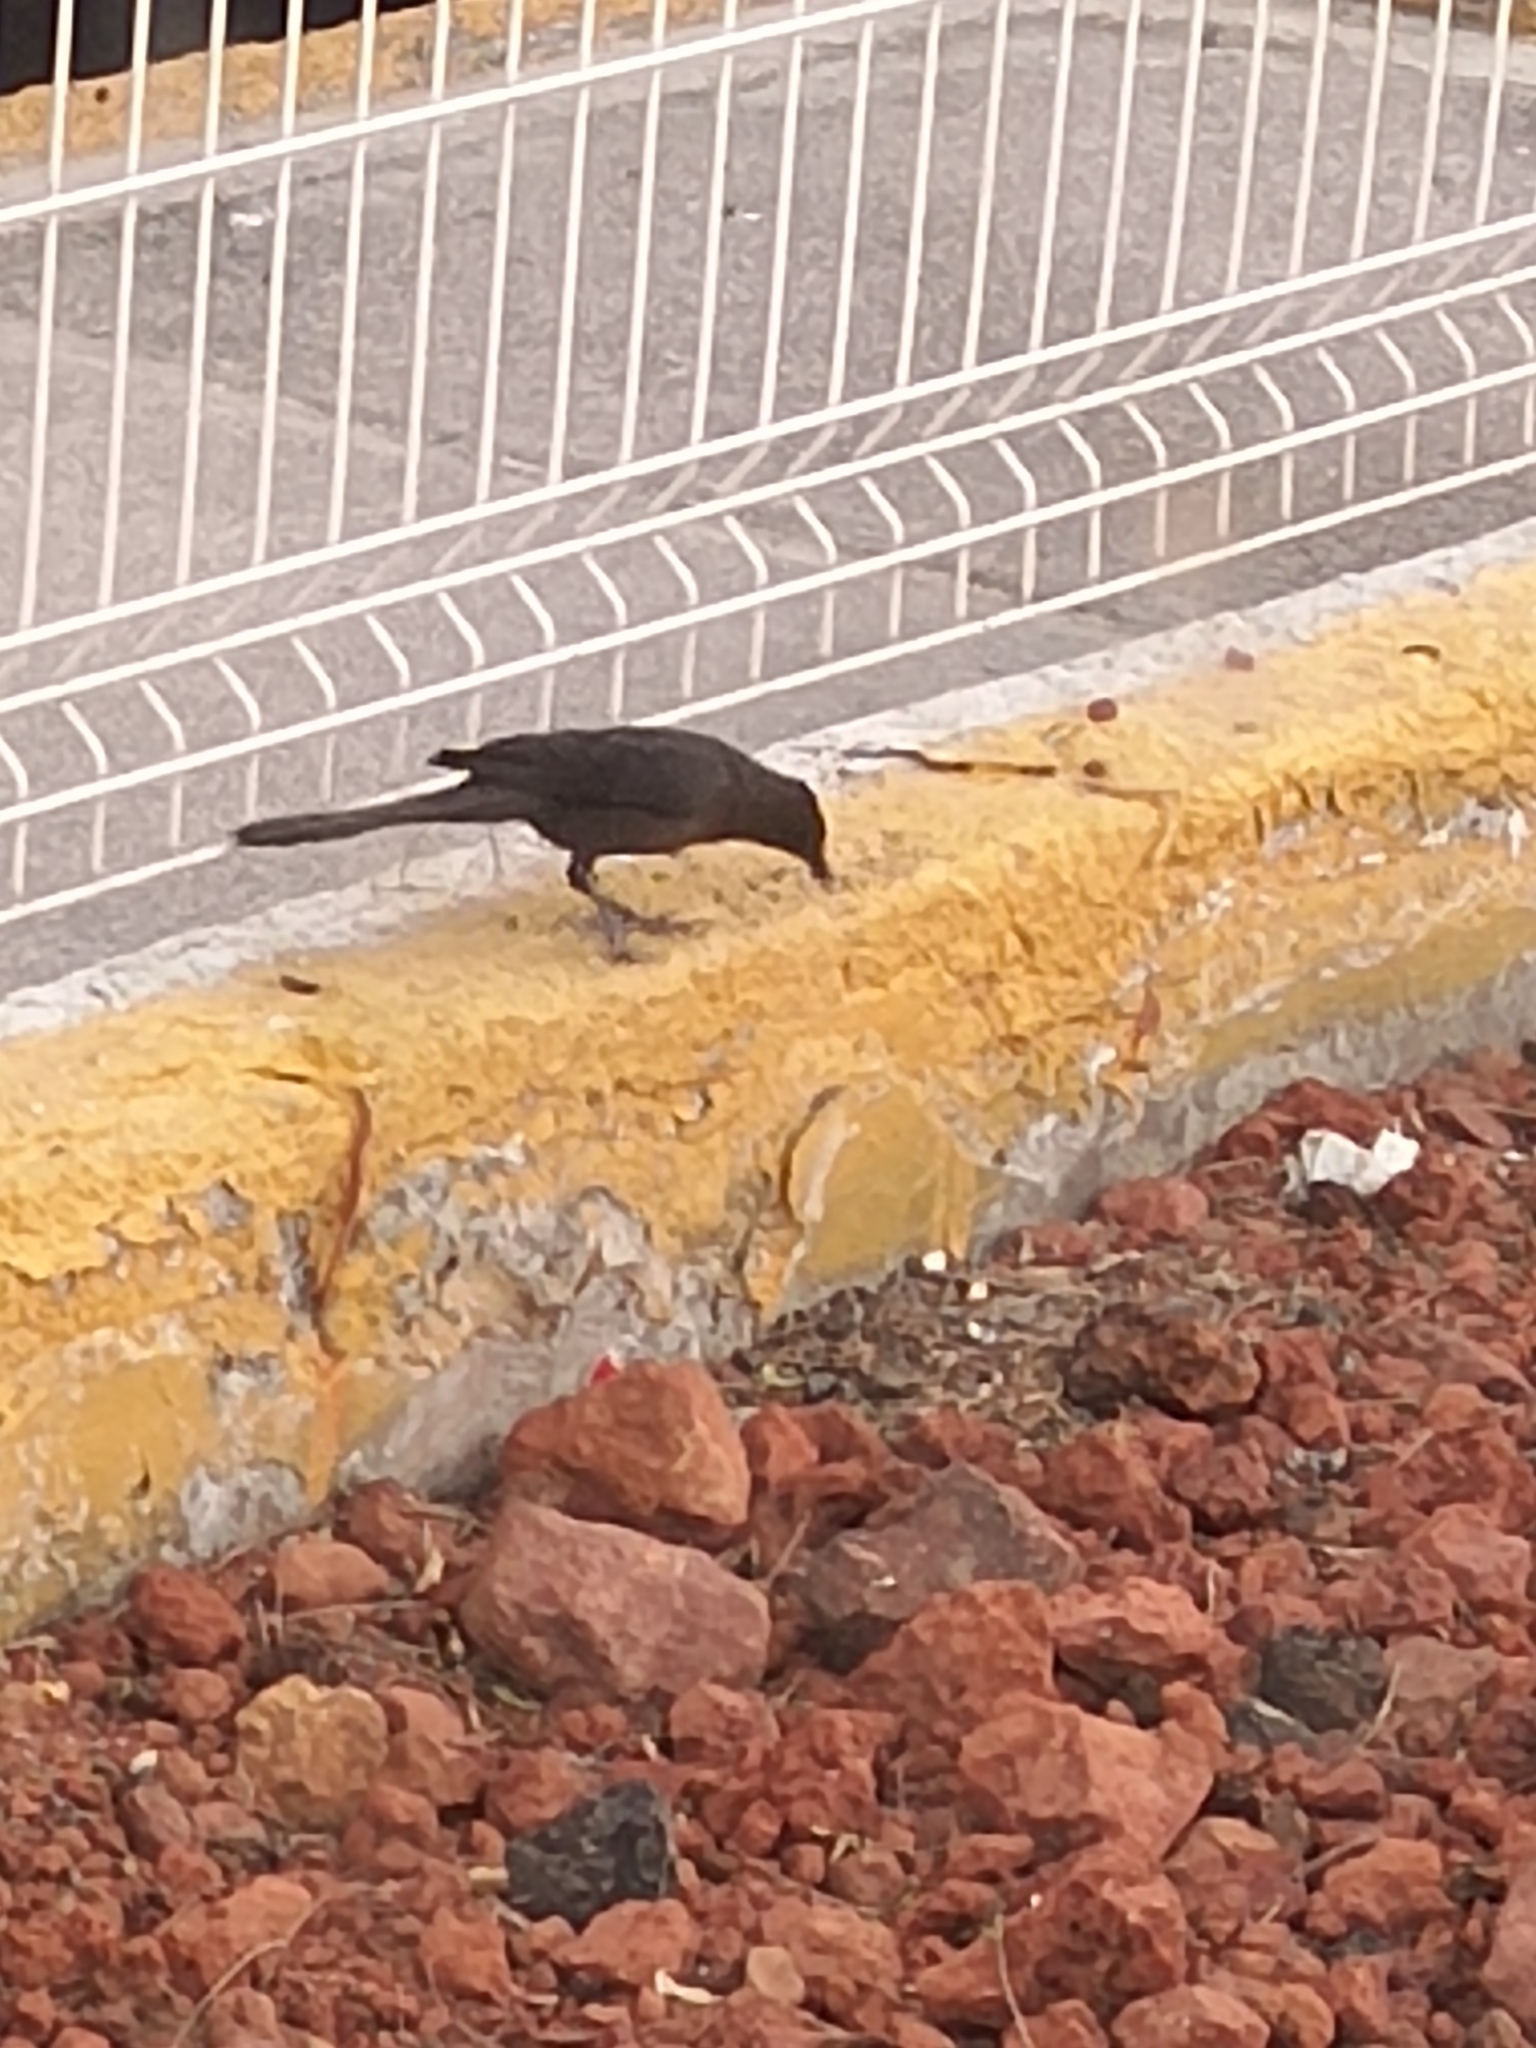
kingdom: Animalia
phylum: Chordata
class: Aves
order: Passeriformes
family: Icteridae
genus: Quiscalus
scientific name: Quiscalus mexicanus
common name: Great-tailed grackle
